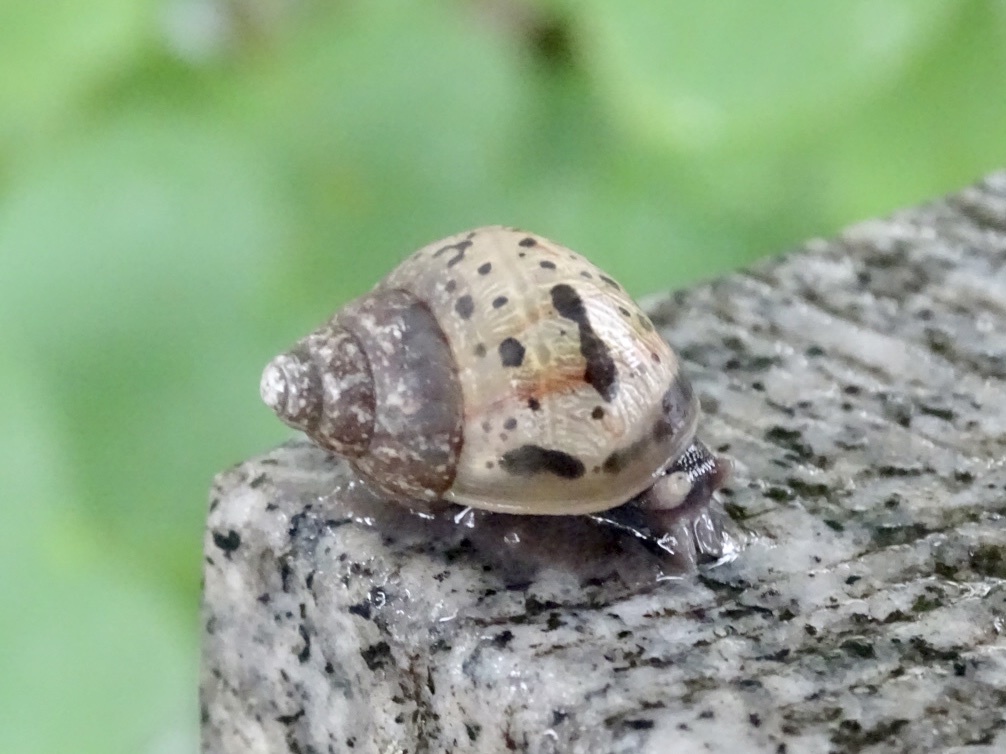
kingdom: Animalia
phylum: Mollusca
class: Gastropoda
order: Stylommatophora
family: Achatinidae
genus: Lissachatina
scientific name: Lissachatina fulica
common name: Giant african snail
